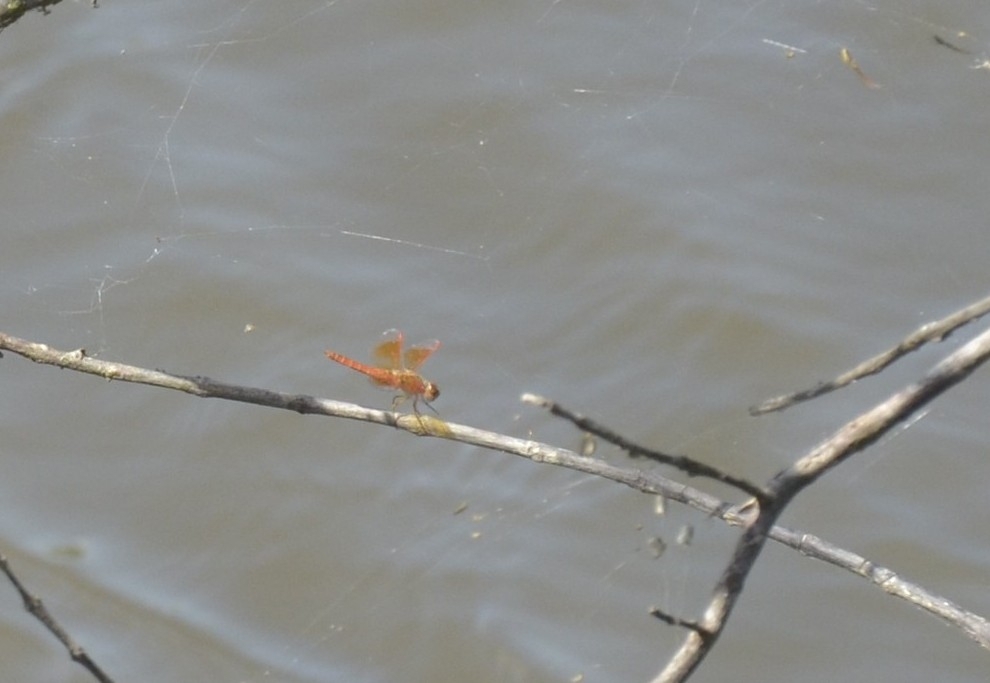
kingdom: Animalia
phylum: Arthropoda
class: Insecta
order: Odonata
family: Libellulidae
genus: Brachythemis
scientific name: Brachythemis contaminata
